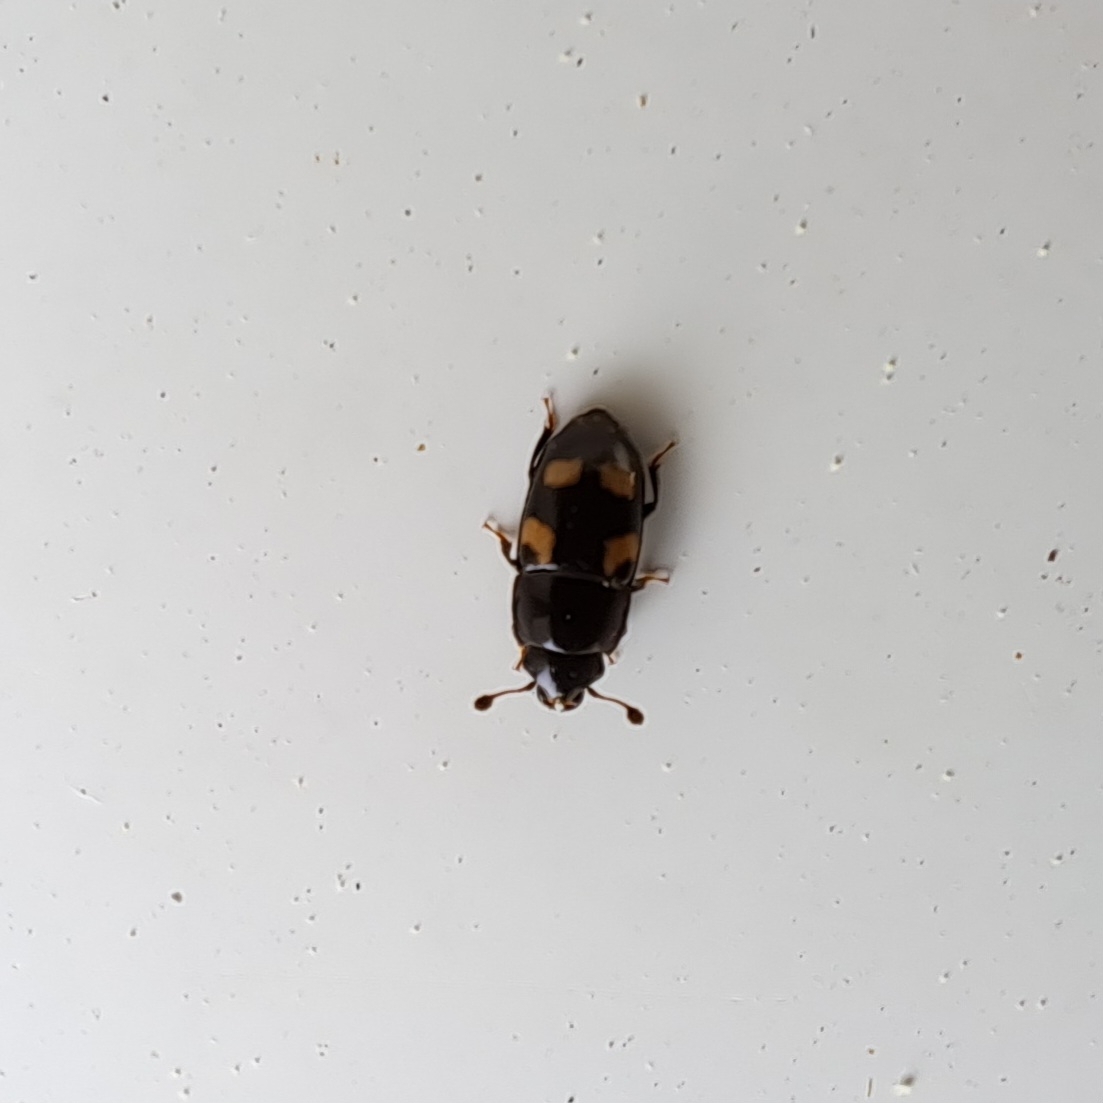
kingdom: Animalia
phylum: Arthropoda
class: Insecta
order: Coleoptera
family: Nitidulidae
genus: Glischrochilus
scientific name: Glischrochilus quadrisignatus
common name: Picnic beetle
